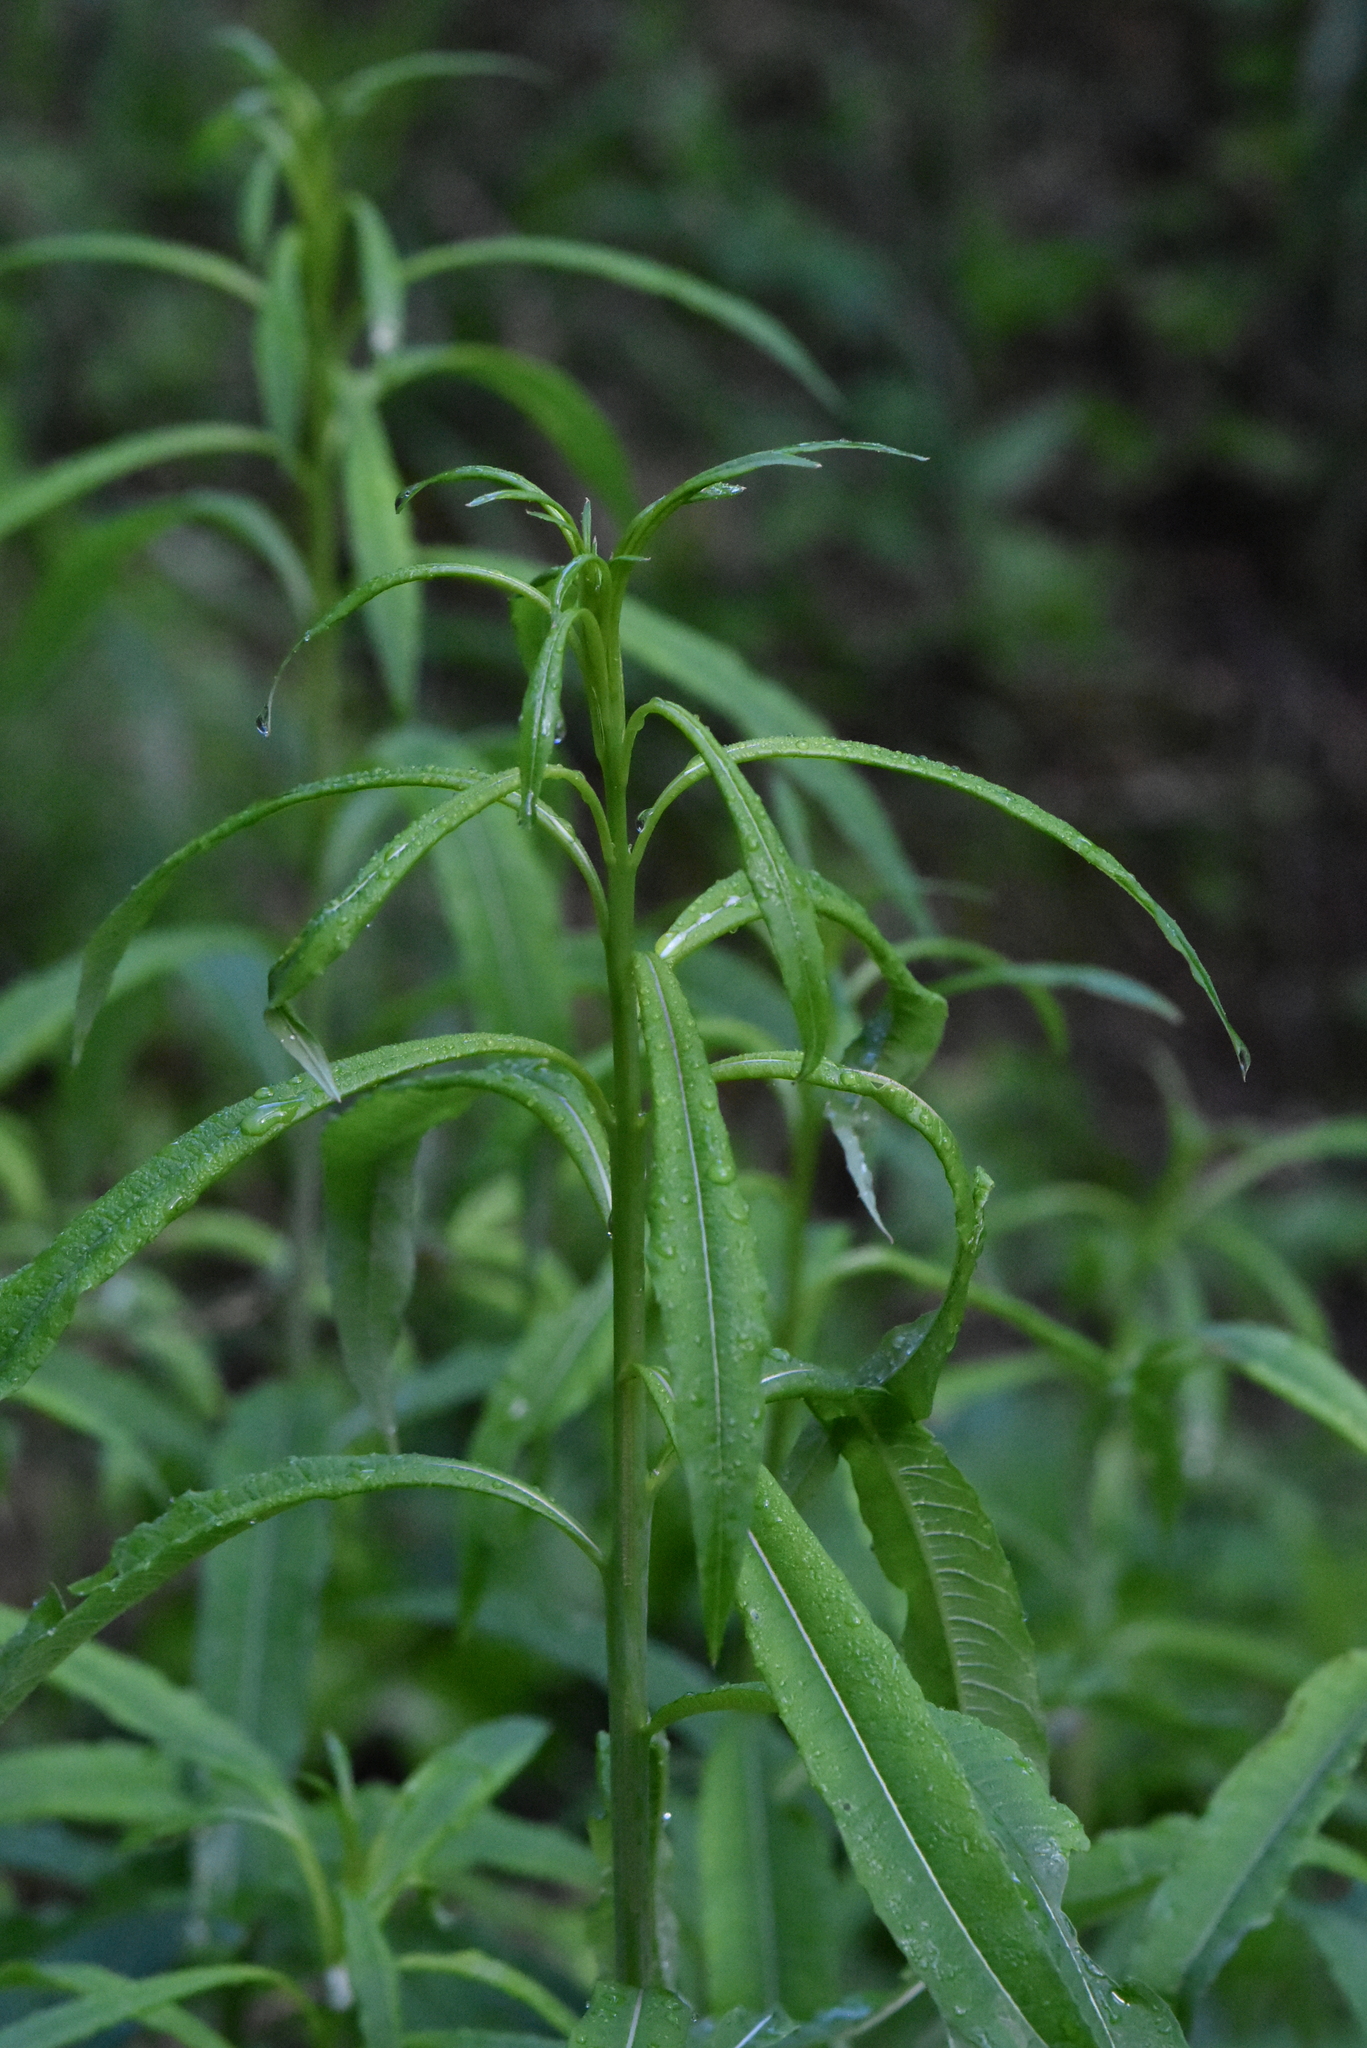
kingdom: Plantae
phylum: Tracheophyta
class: Magnoliopsida
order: Myrtales
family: Onagraceae
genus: Chamaenerion
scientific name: Chamaenerion angustifolium
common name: Fireweed
